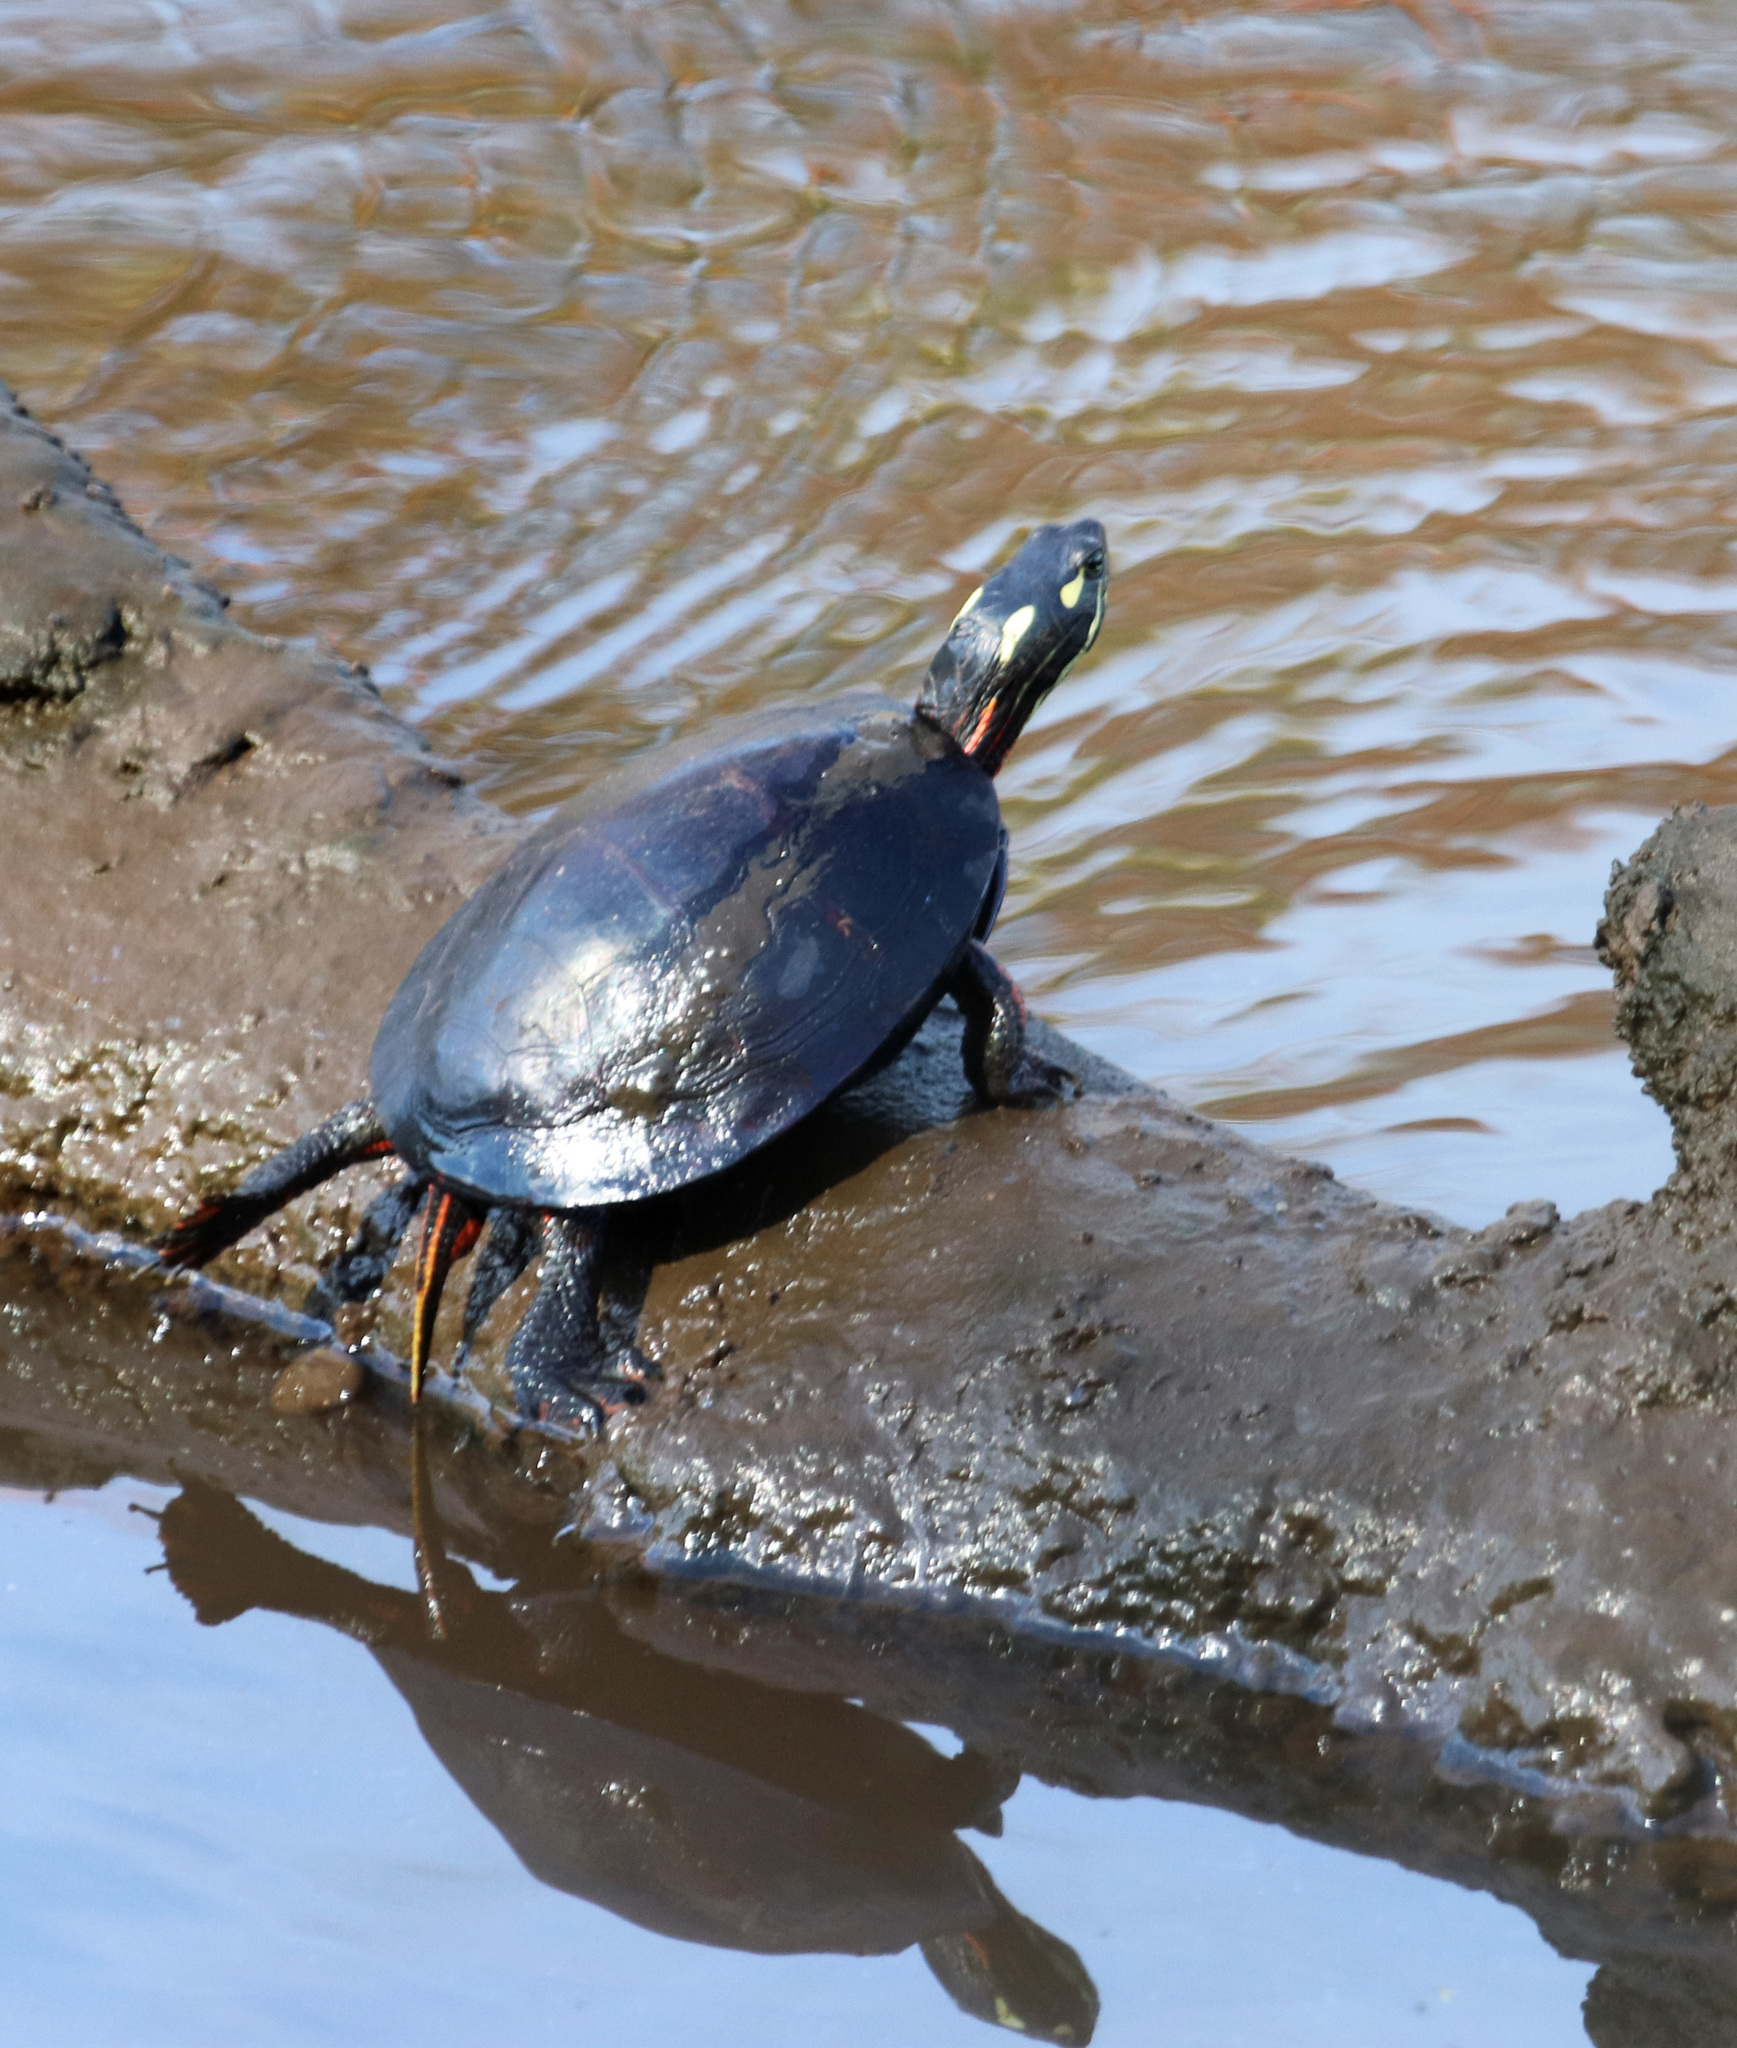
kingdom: Animalia
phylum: Chordata
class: Testudines
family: Emydidae
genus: Chrysemys
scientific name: Chrysemys picta
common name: Painted turtle
